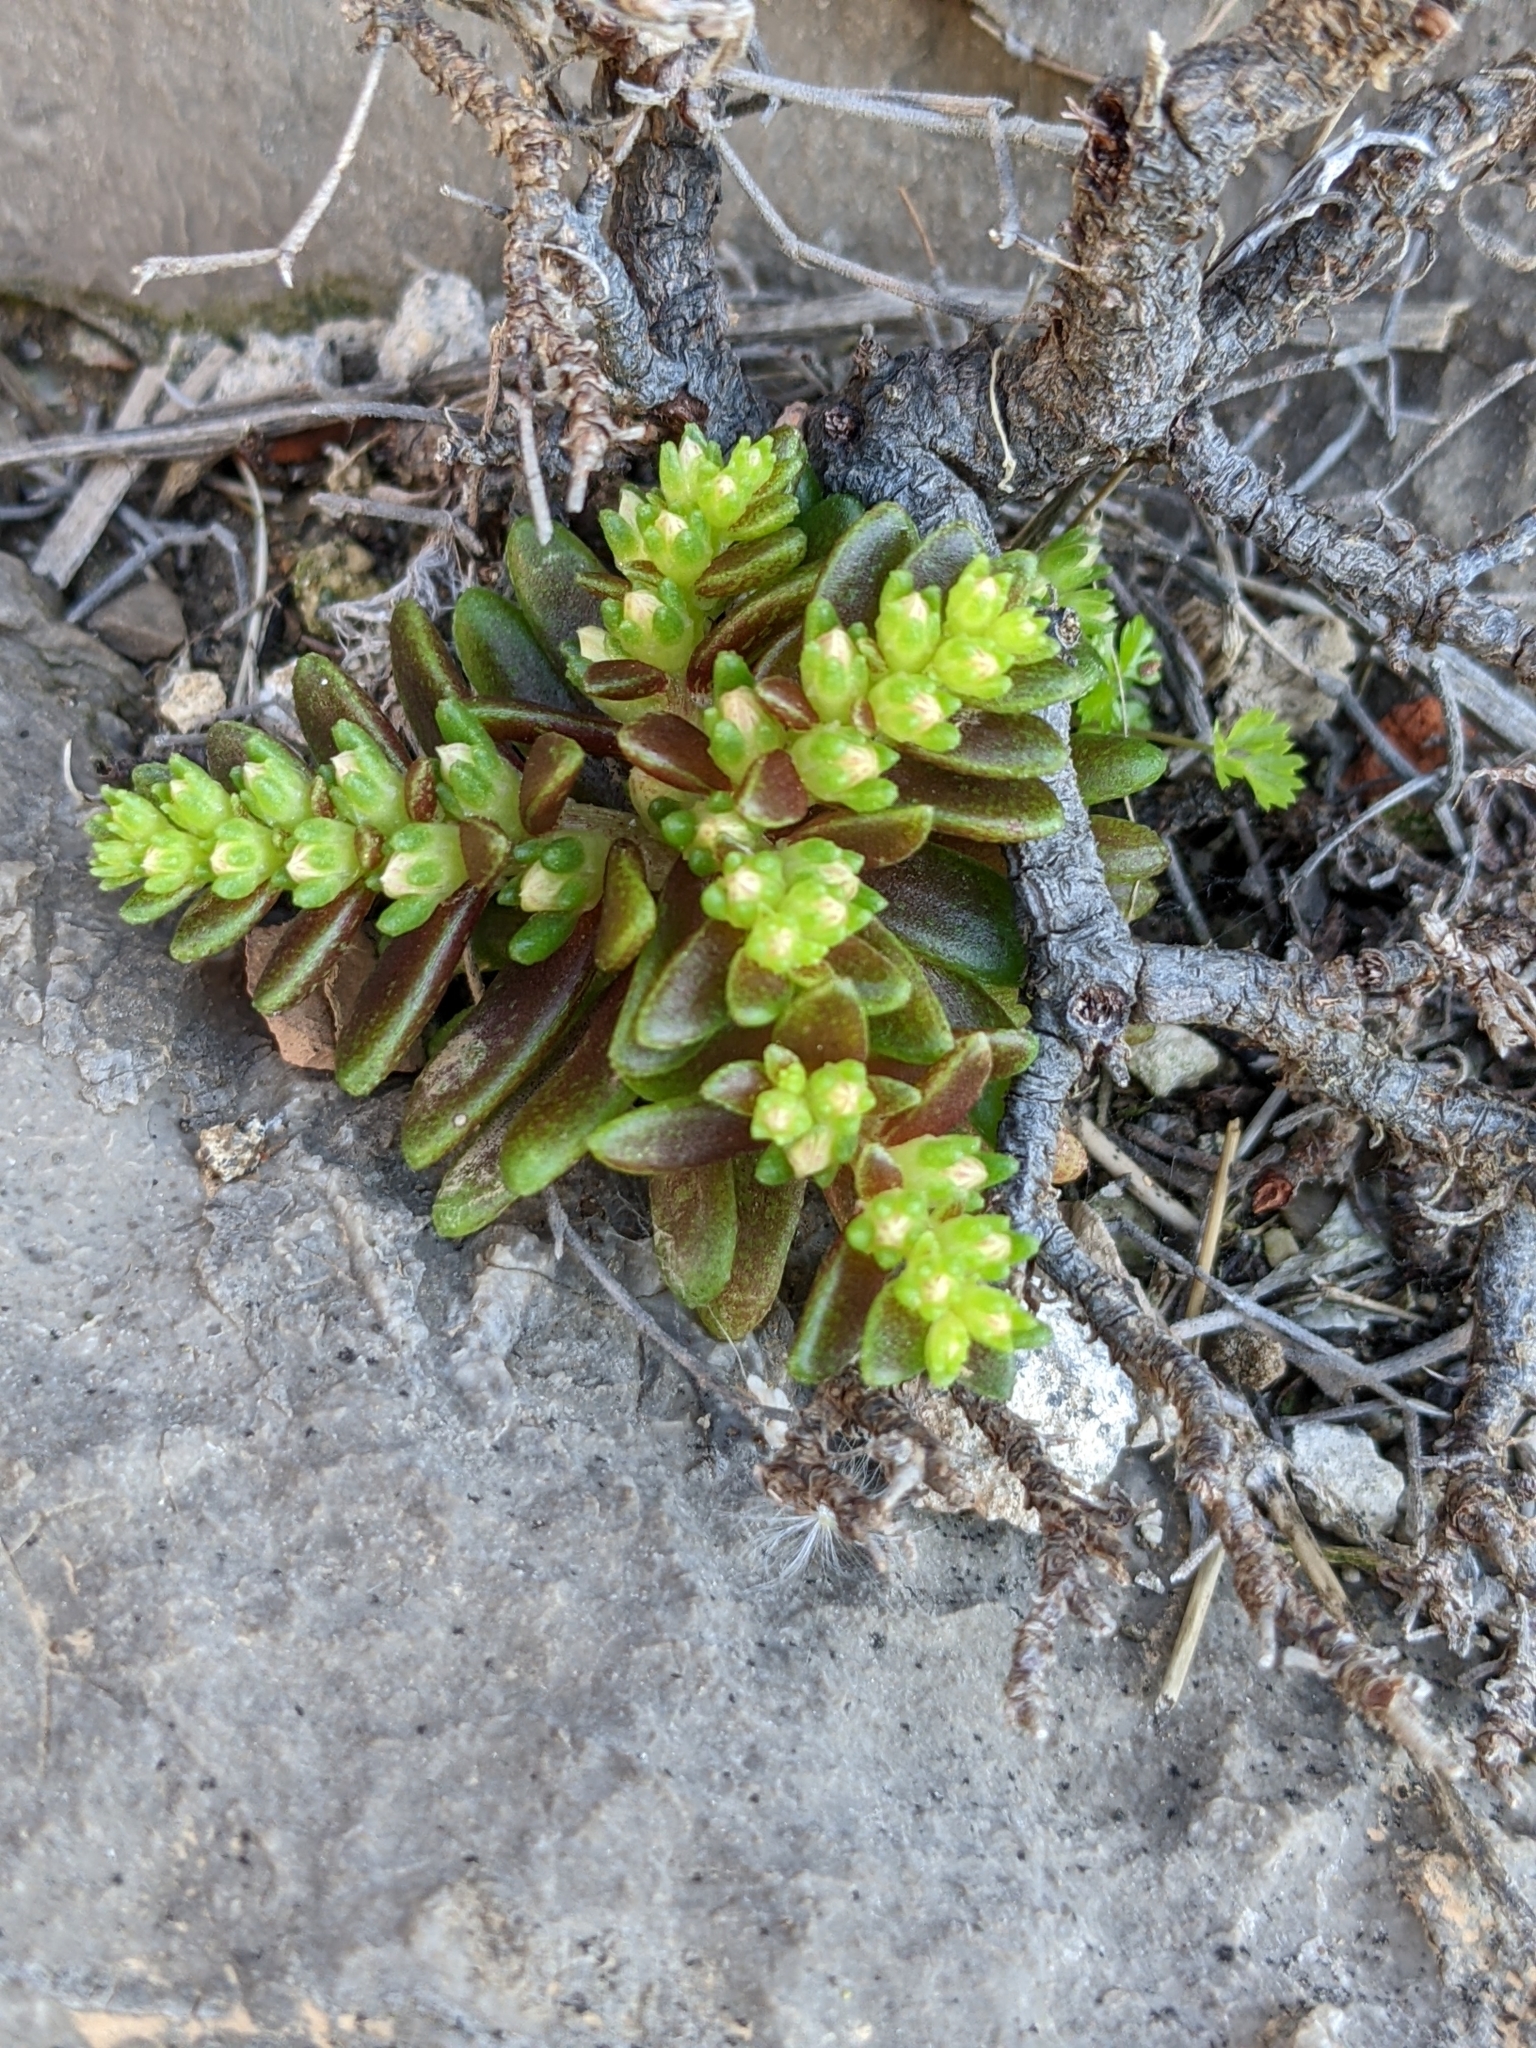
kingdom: Plantae
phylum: Tracheophyta
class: Magnoliopsida
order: Saxifragales
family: Crassulaceae
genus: Sedum
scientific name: Sedum litoreum
